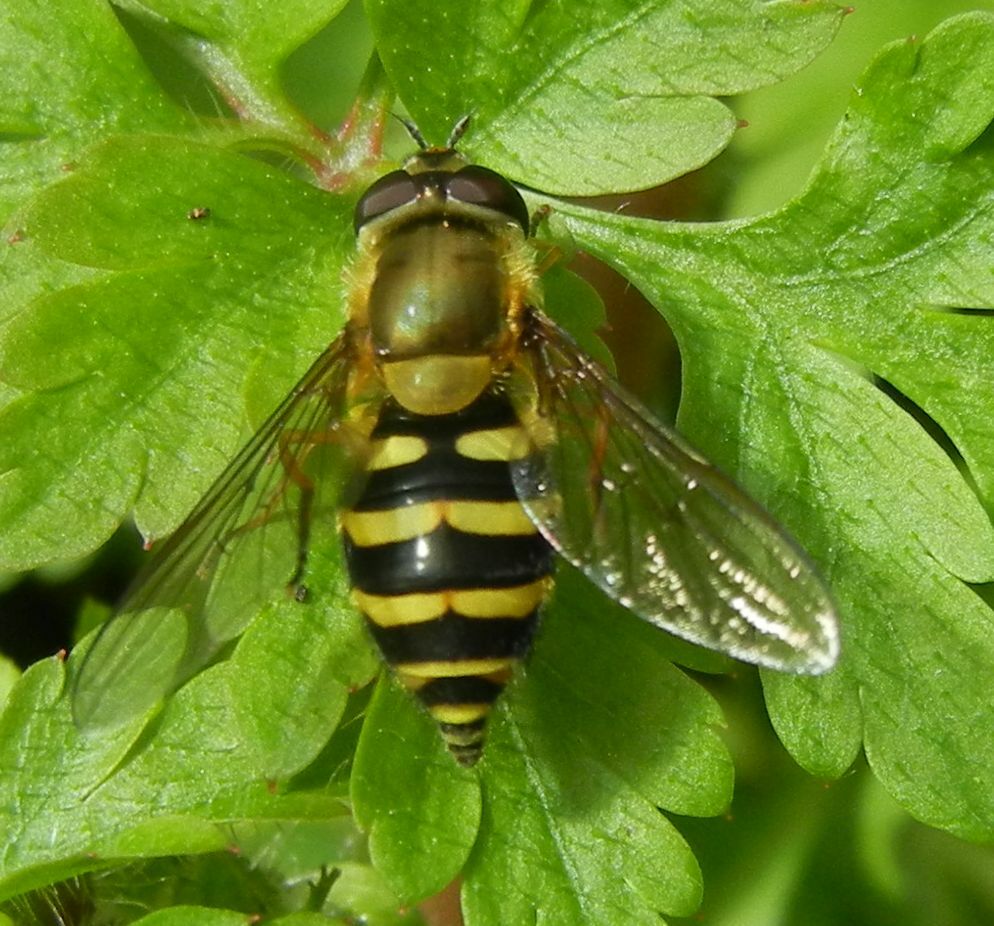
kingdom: Animalia
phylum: Arthropoda
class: Insecta
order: Diptera
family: Syrphidae
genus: Syrphus
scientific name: Syrphus
